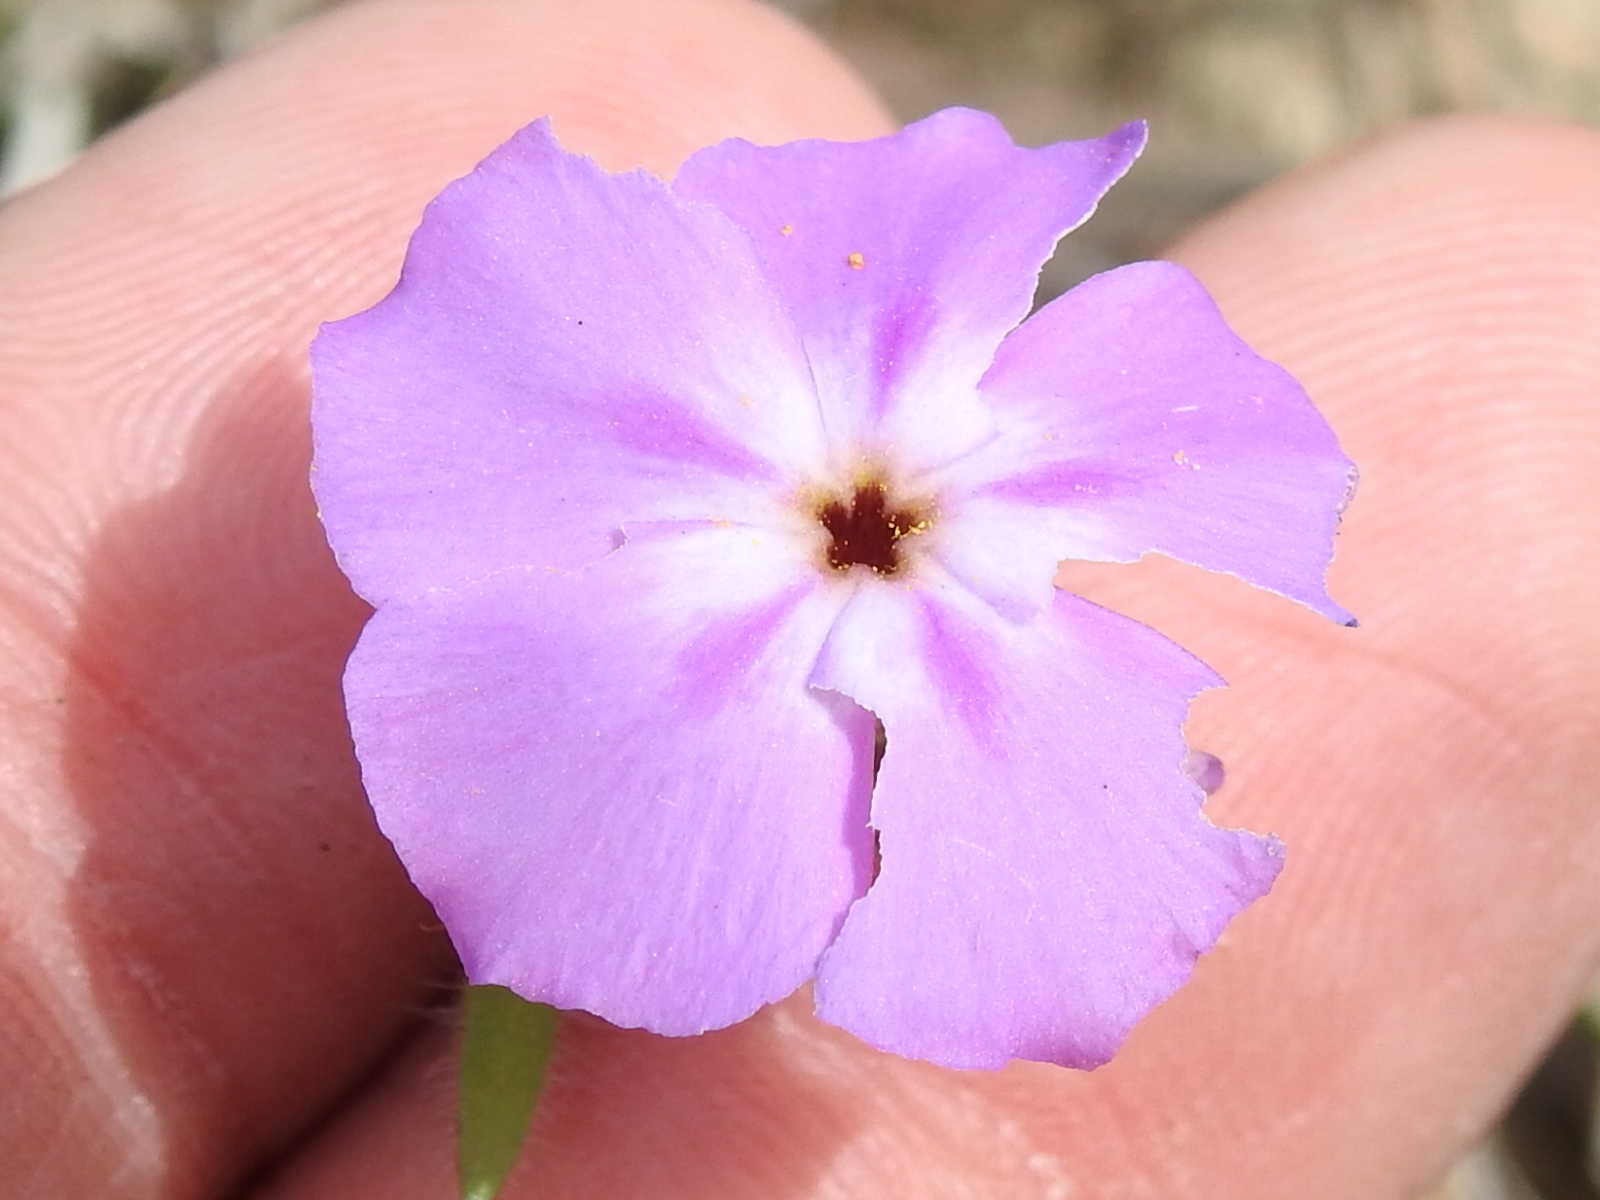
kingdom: Plantae
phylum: Tracheophyta
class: Magnoliopsida
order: Ericales
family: Polemoniaceae
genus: Phlox
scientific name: Phlox drummondii
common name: Drummond's phlox
